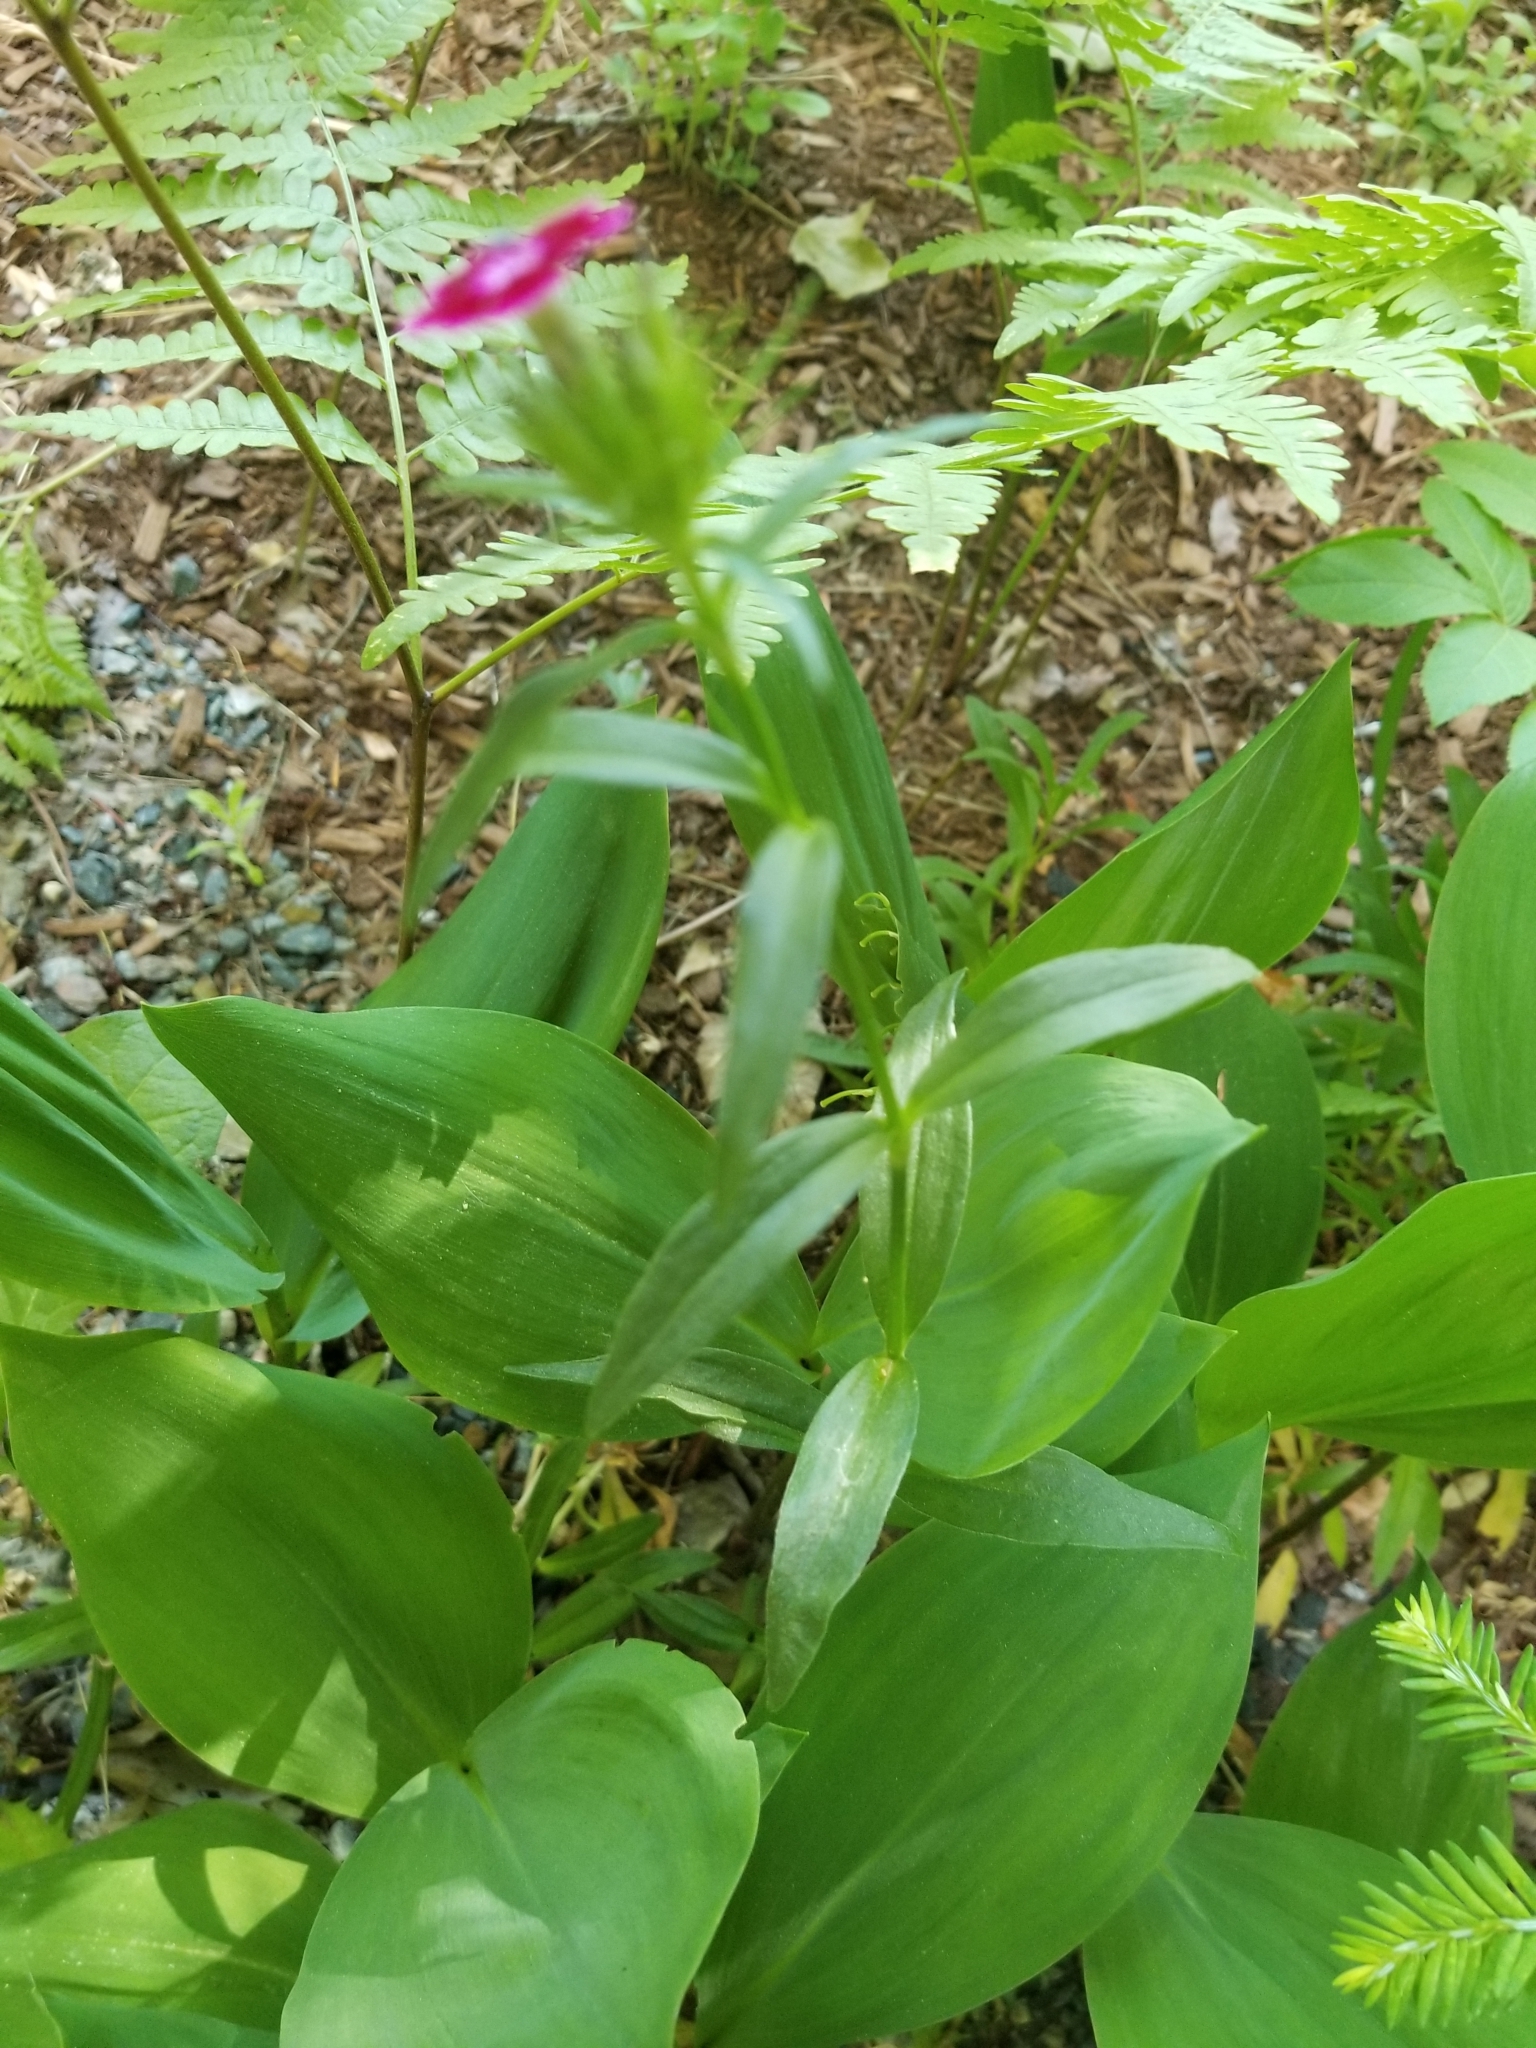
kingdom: Plantae
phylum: Tracheophyta
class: Magnoliopsida
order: Caryophyllales
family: Caryophyllaceae
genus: Dianthus
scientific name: Dianthus barbatus
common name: Sweet-william
